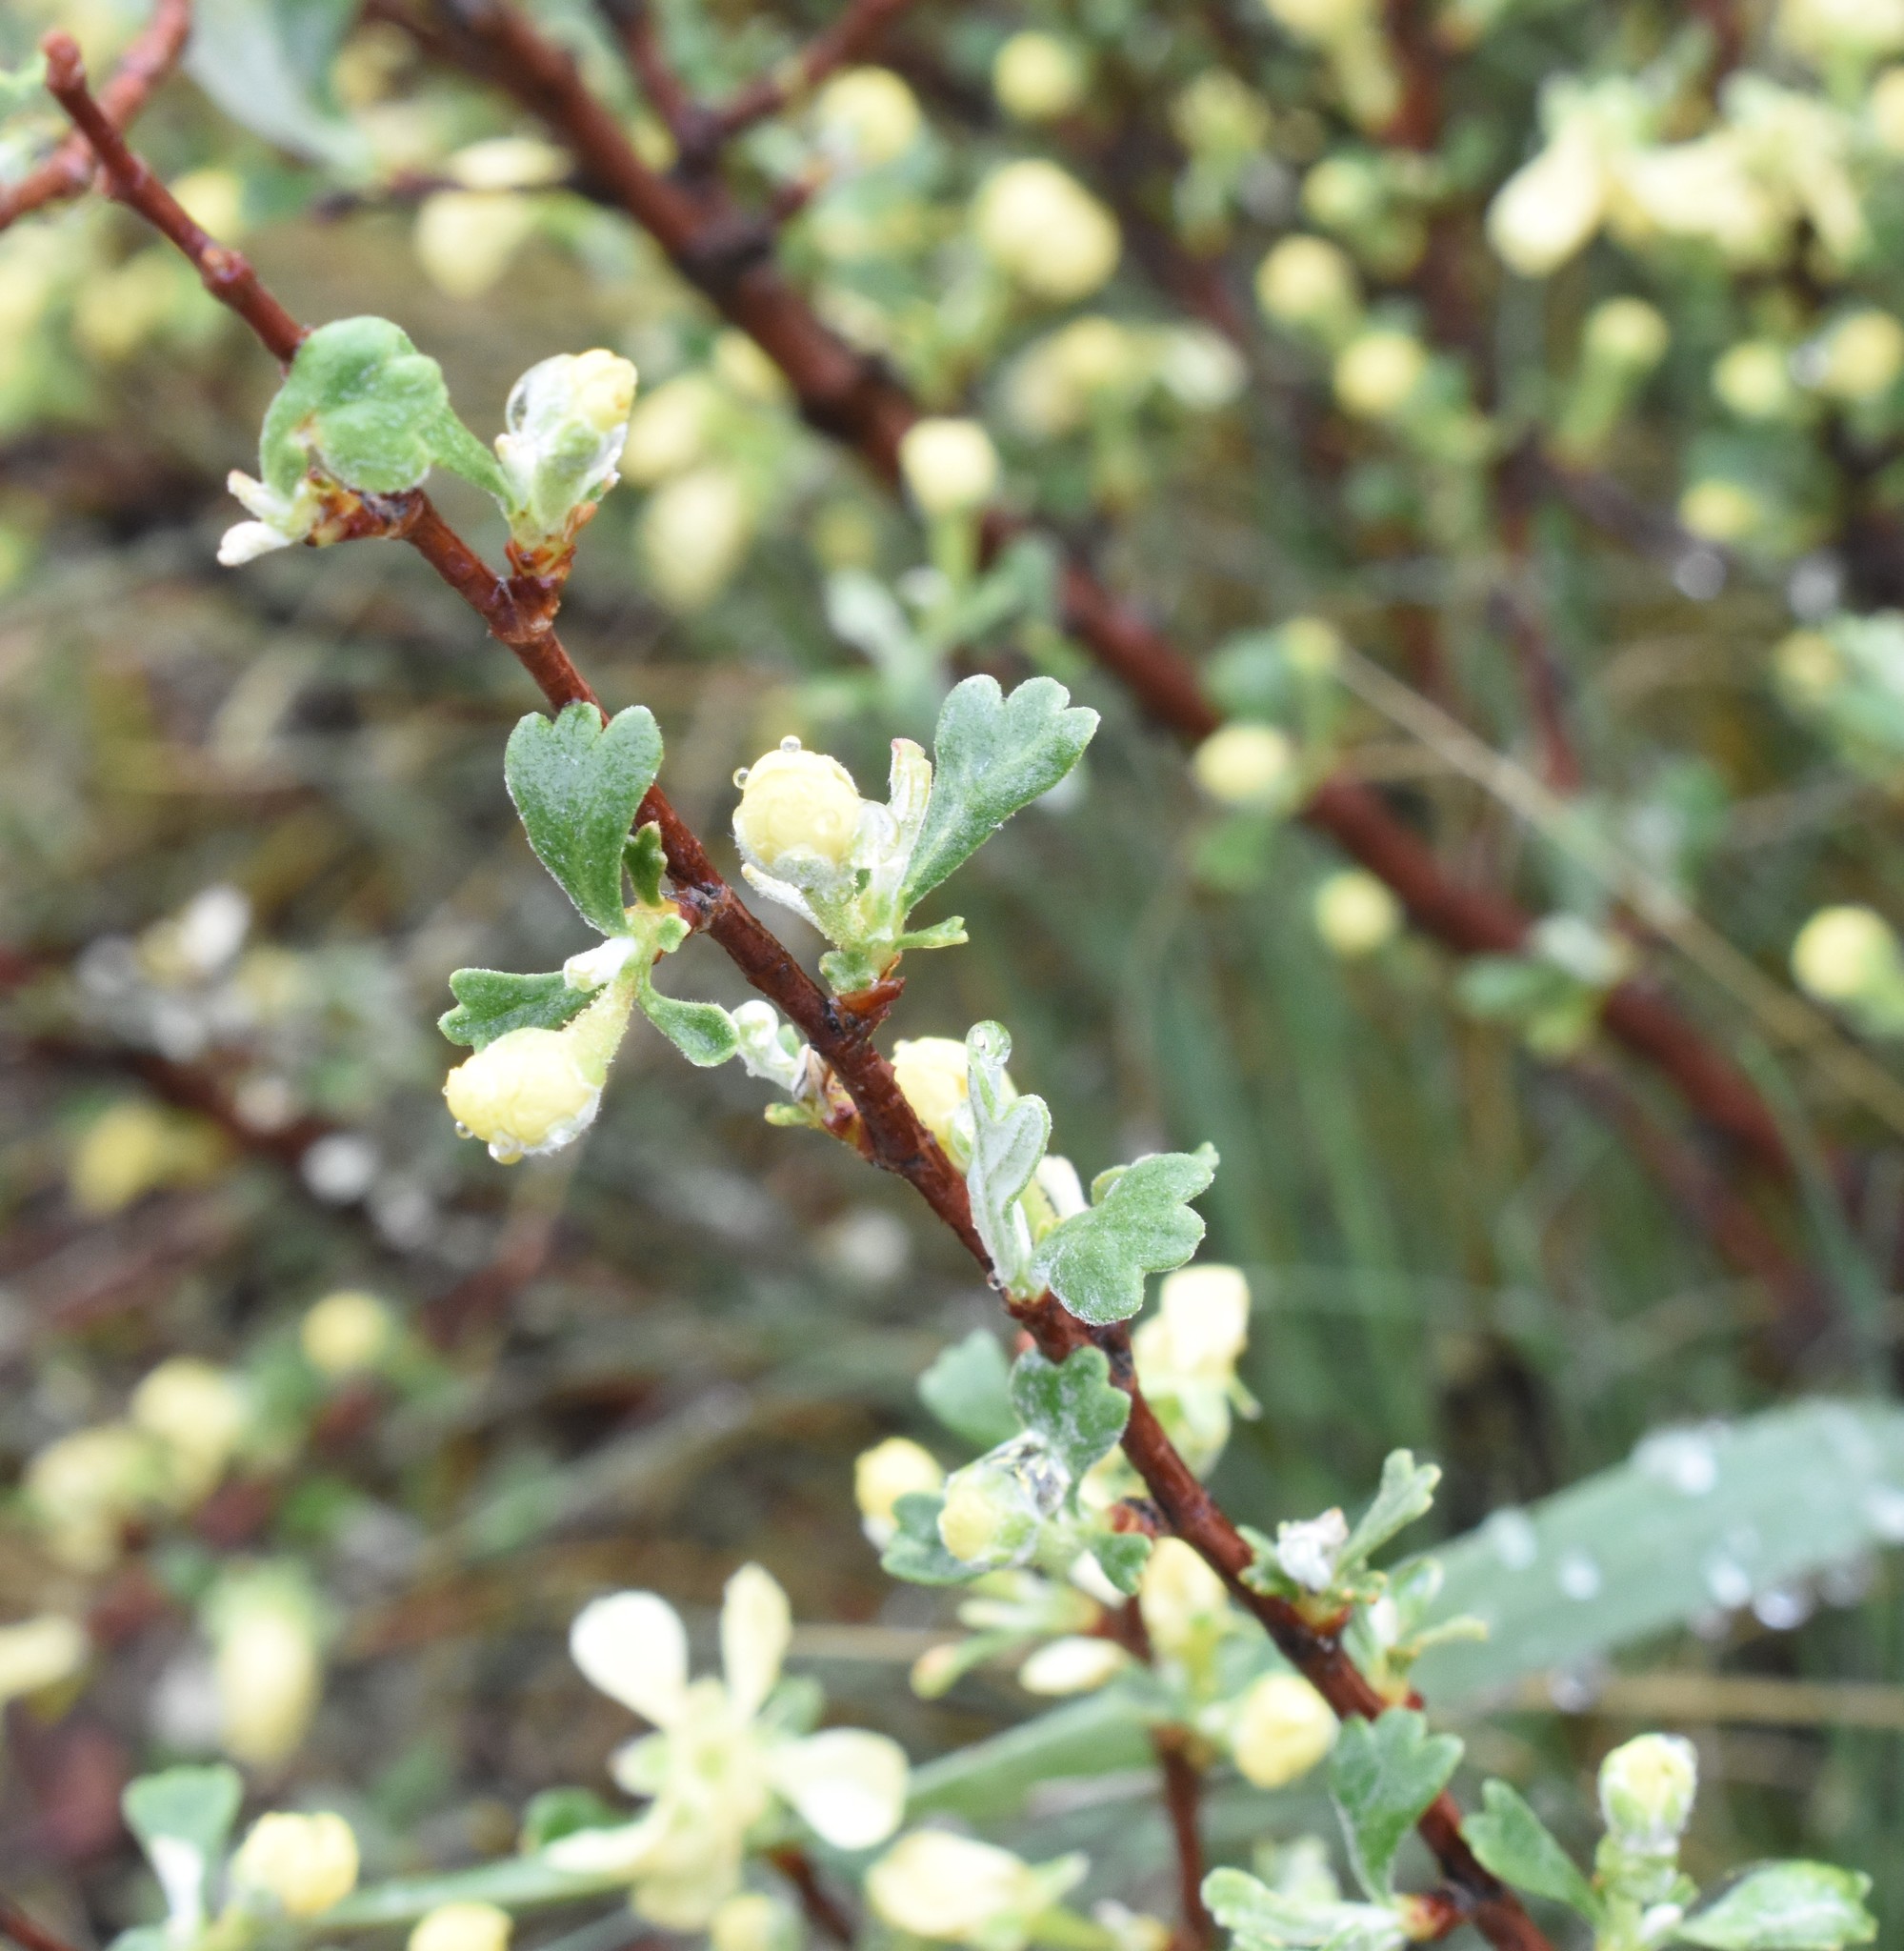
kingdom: Plantae
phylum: Tracheophyta
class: Magnoliopsida
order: Rosales
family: Rosaceae
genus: Purshia
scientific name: Purshia tridentata
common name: Antelope bitterbrush
